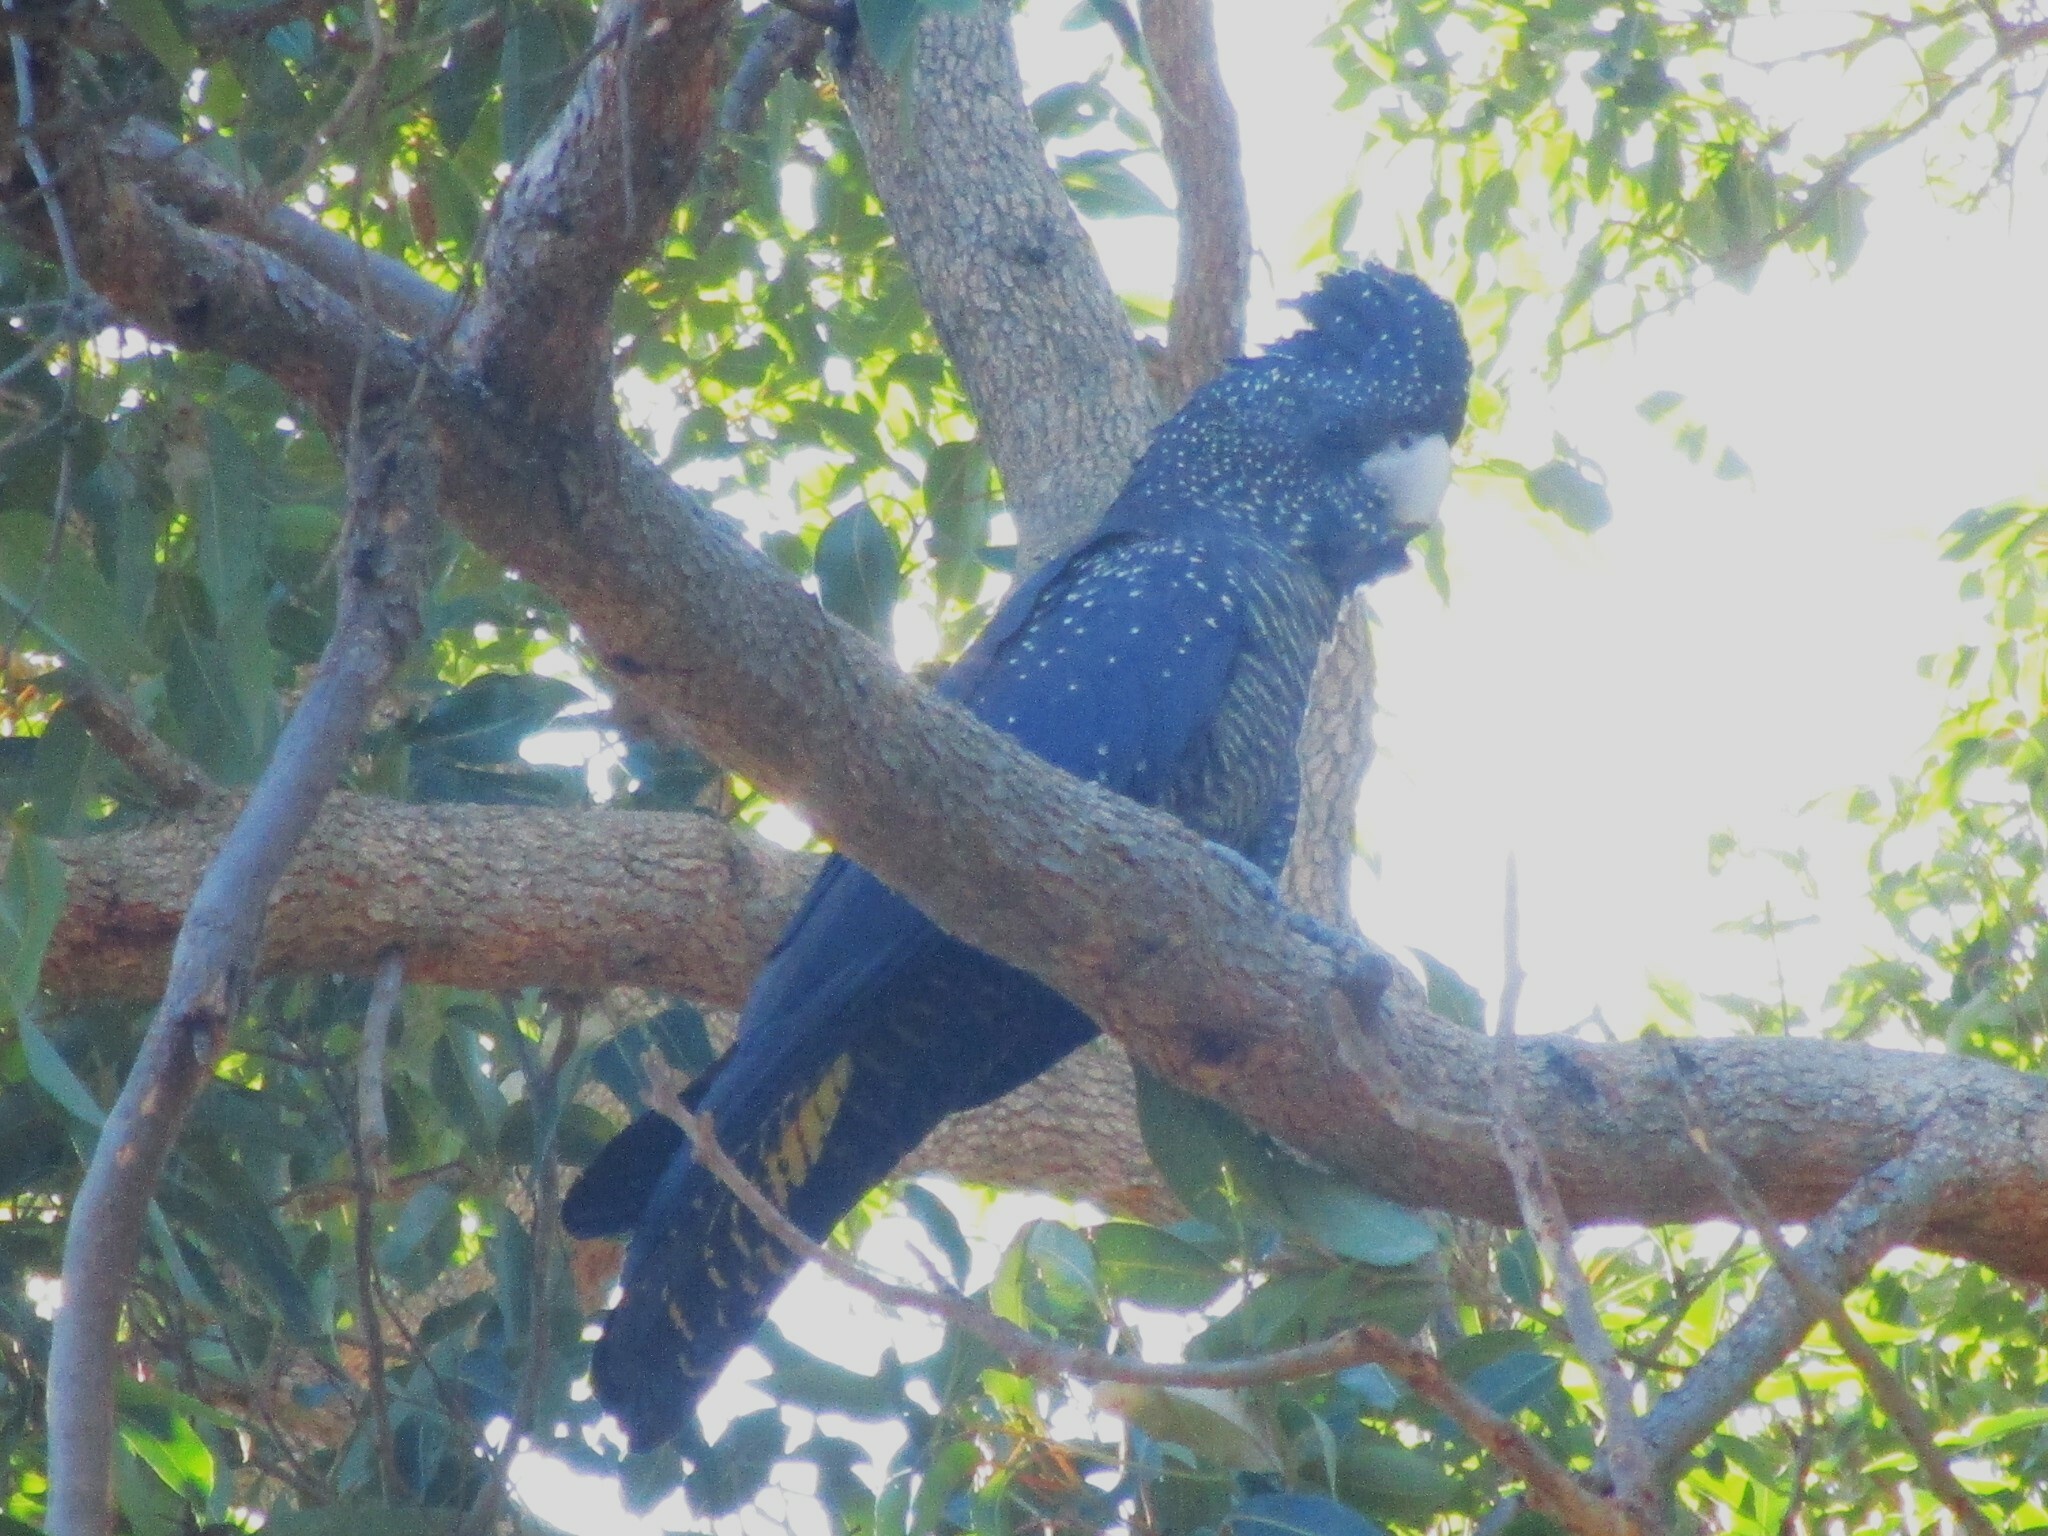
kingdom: Animalia
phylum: Chordata
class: Aves
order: Psittaciformes
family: Psittacidae
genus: Calyptorhynchus
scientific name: Calyptorhynchus banksii
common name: Red-tailed black cockatoo
